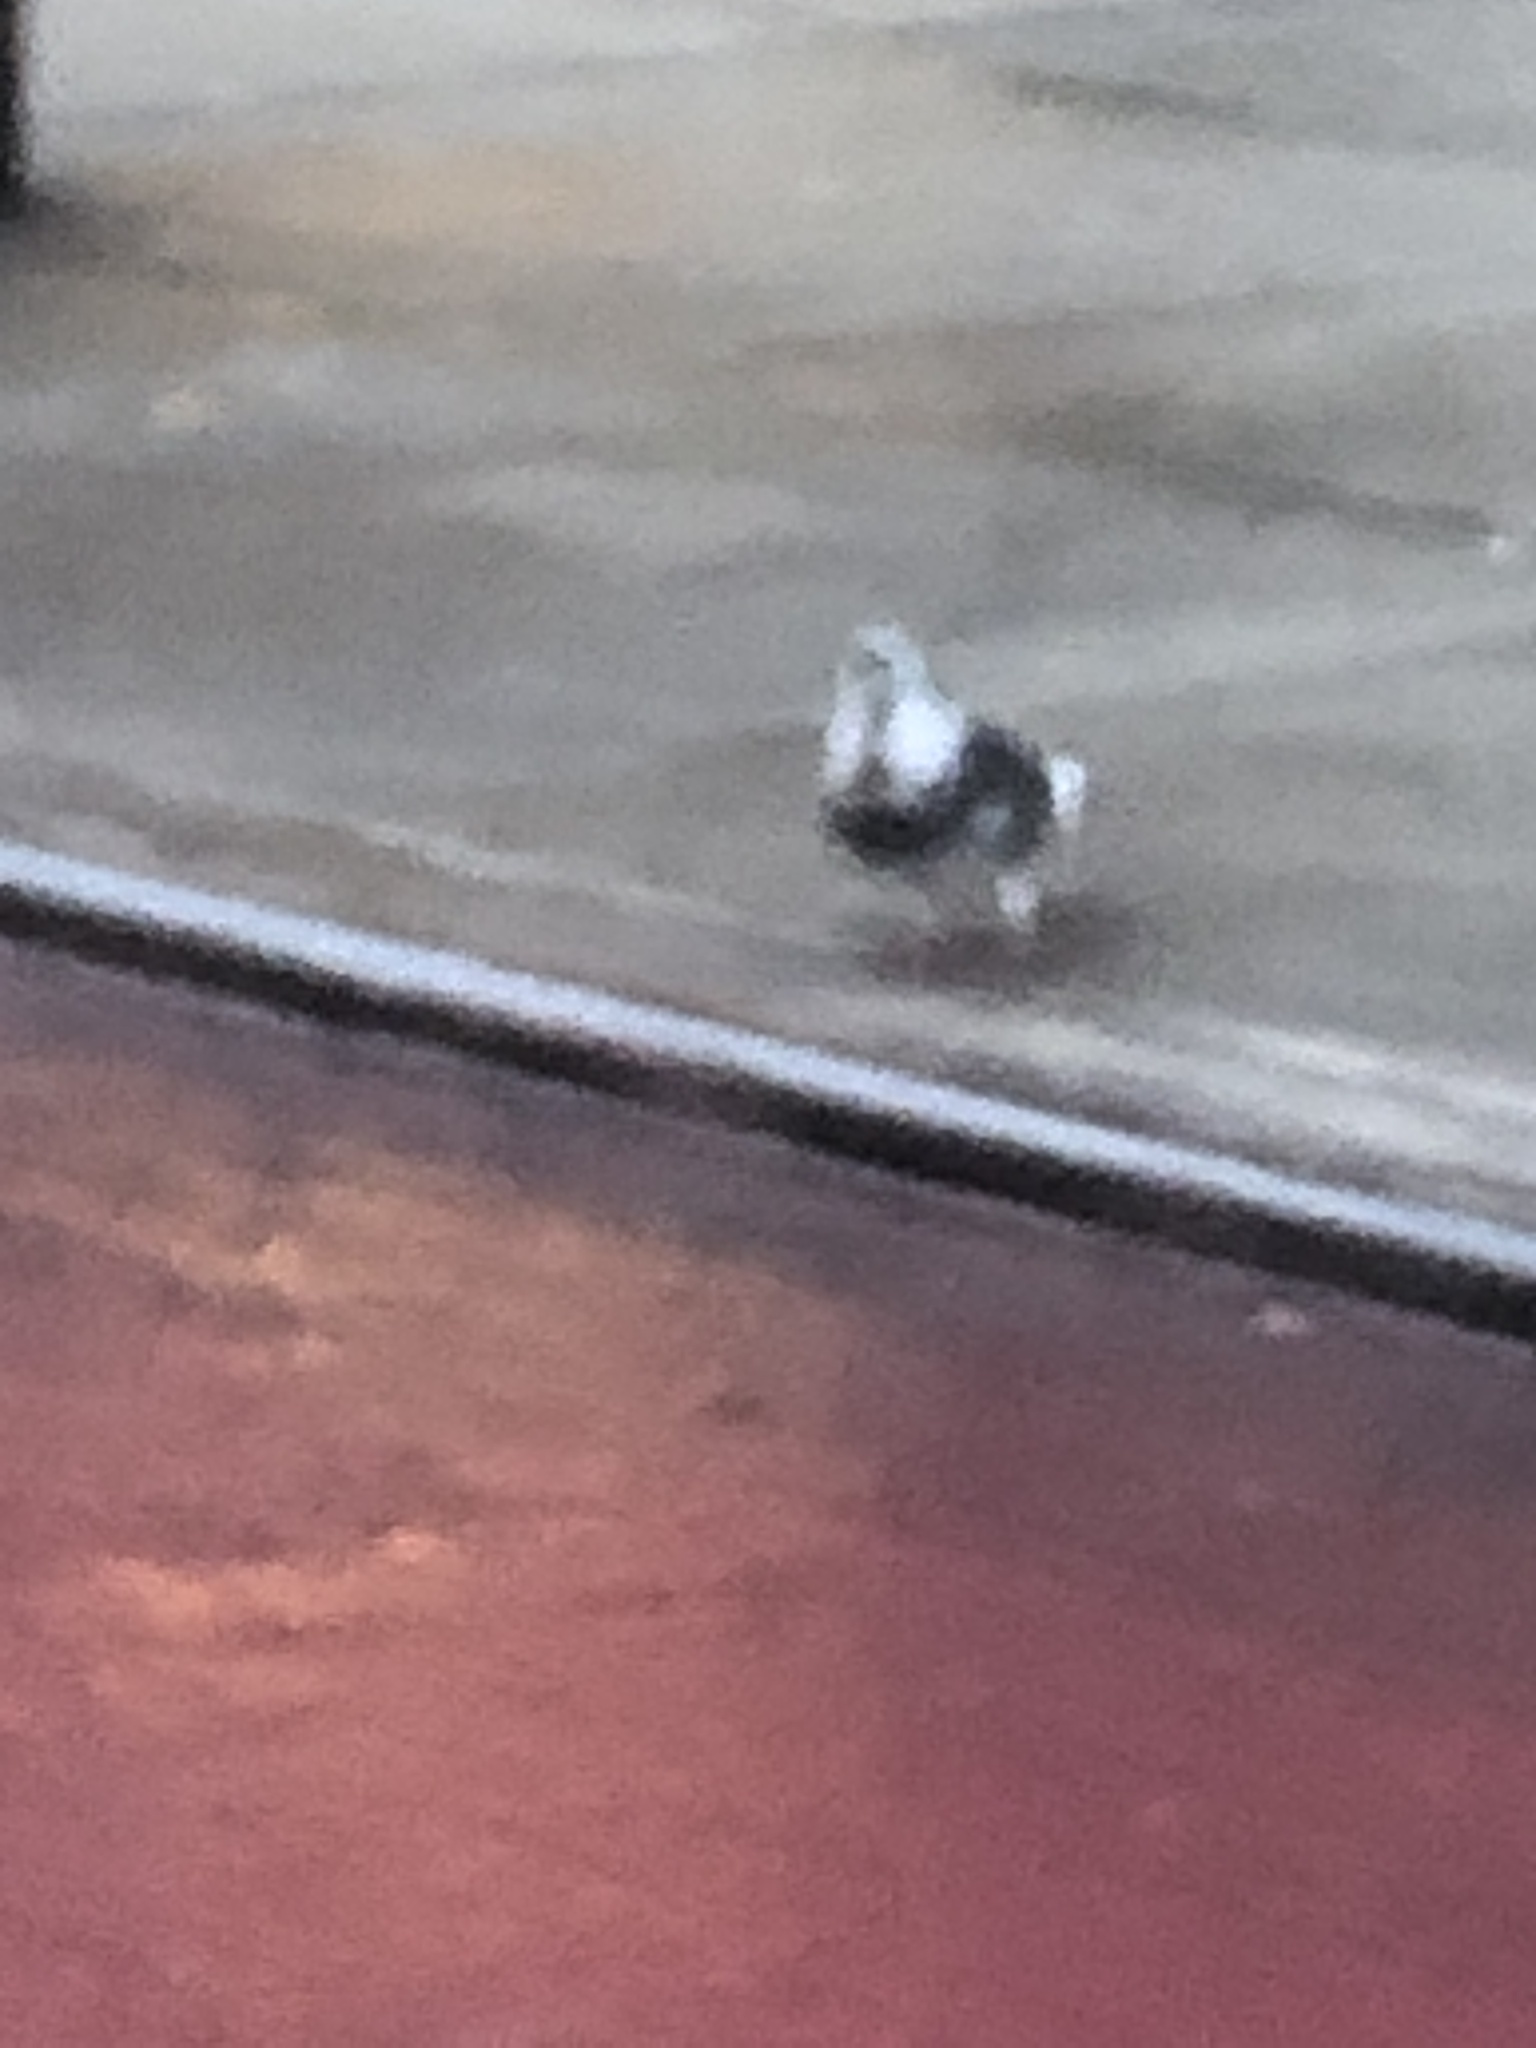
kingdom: Animalia
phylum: Chordata
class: Aves
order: Columbiformes
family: Columbidae
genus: Columba
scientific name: Columba livia
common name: Rock pigeon
